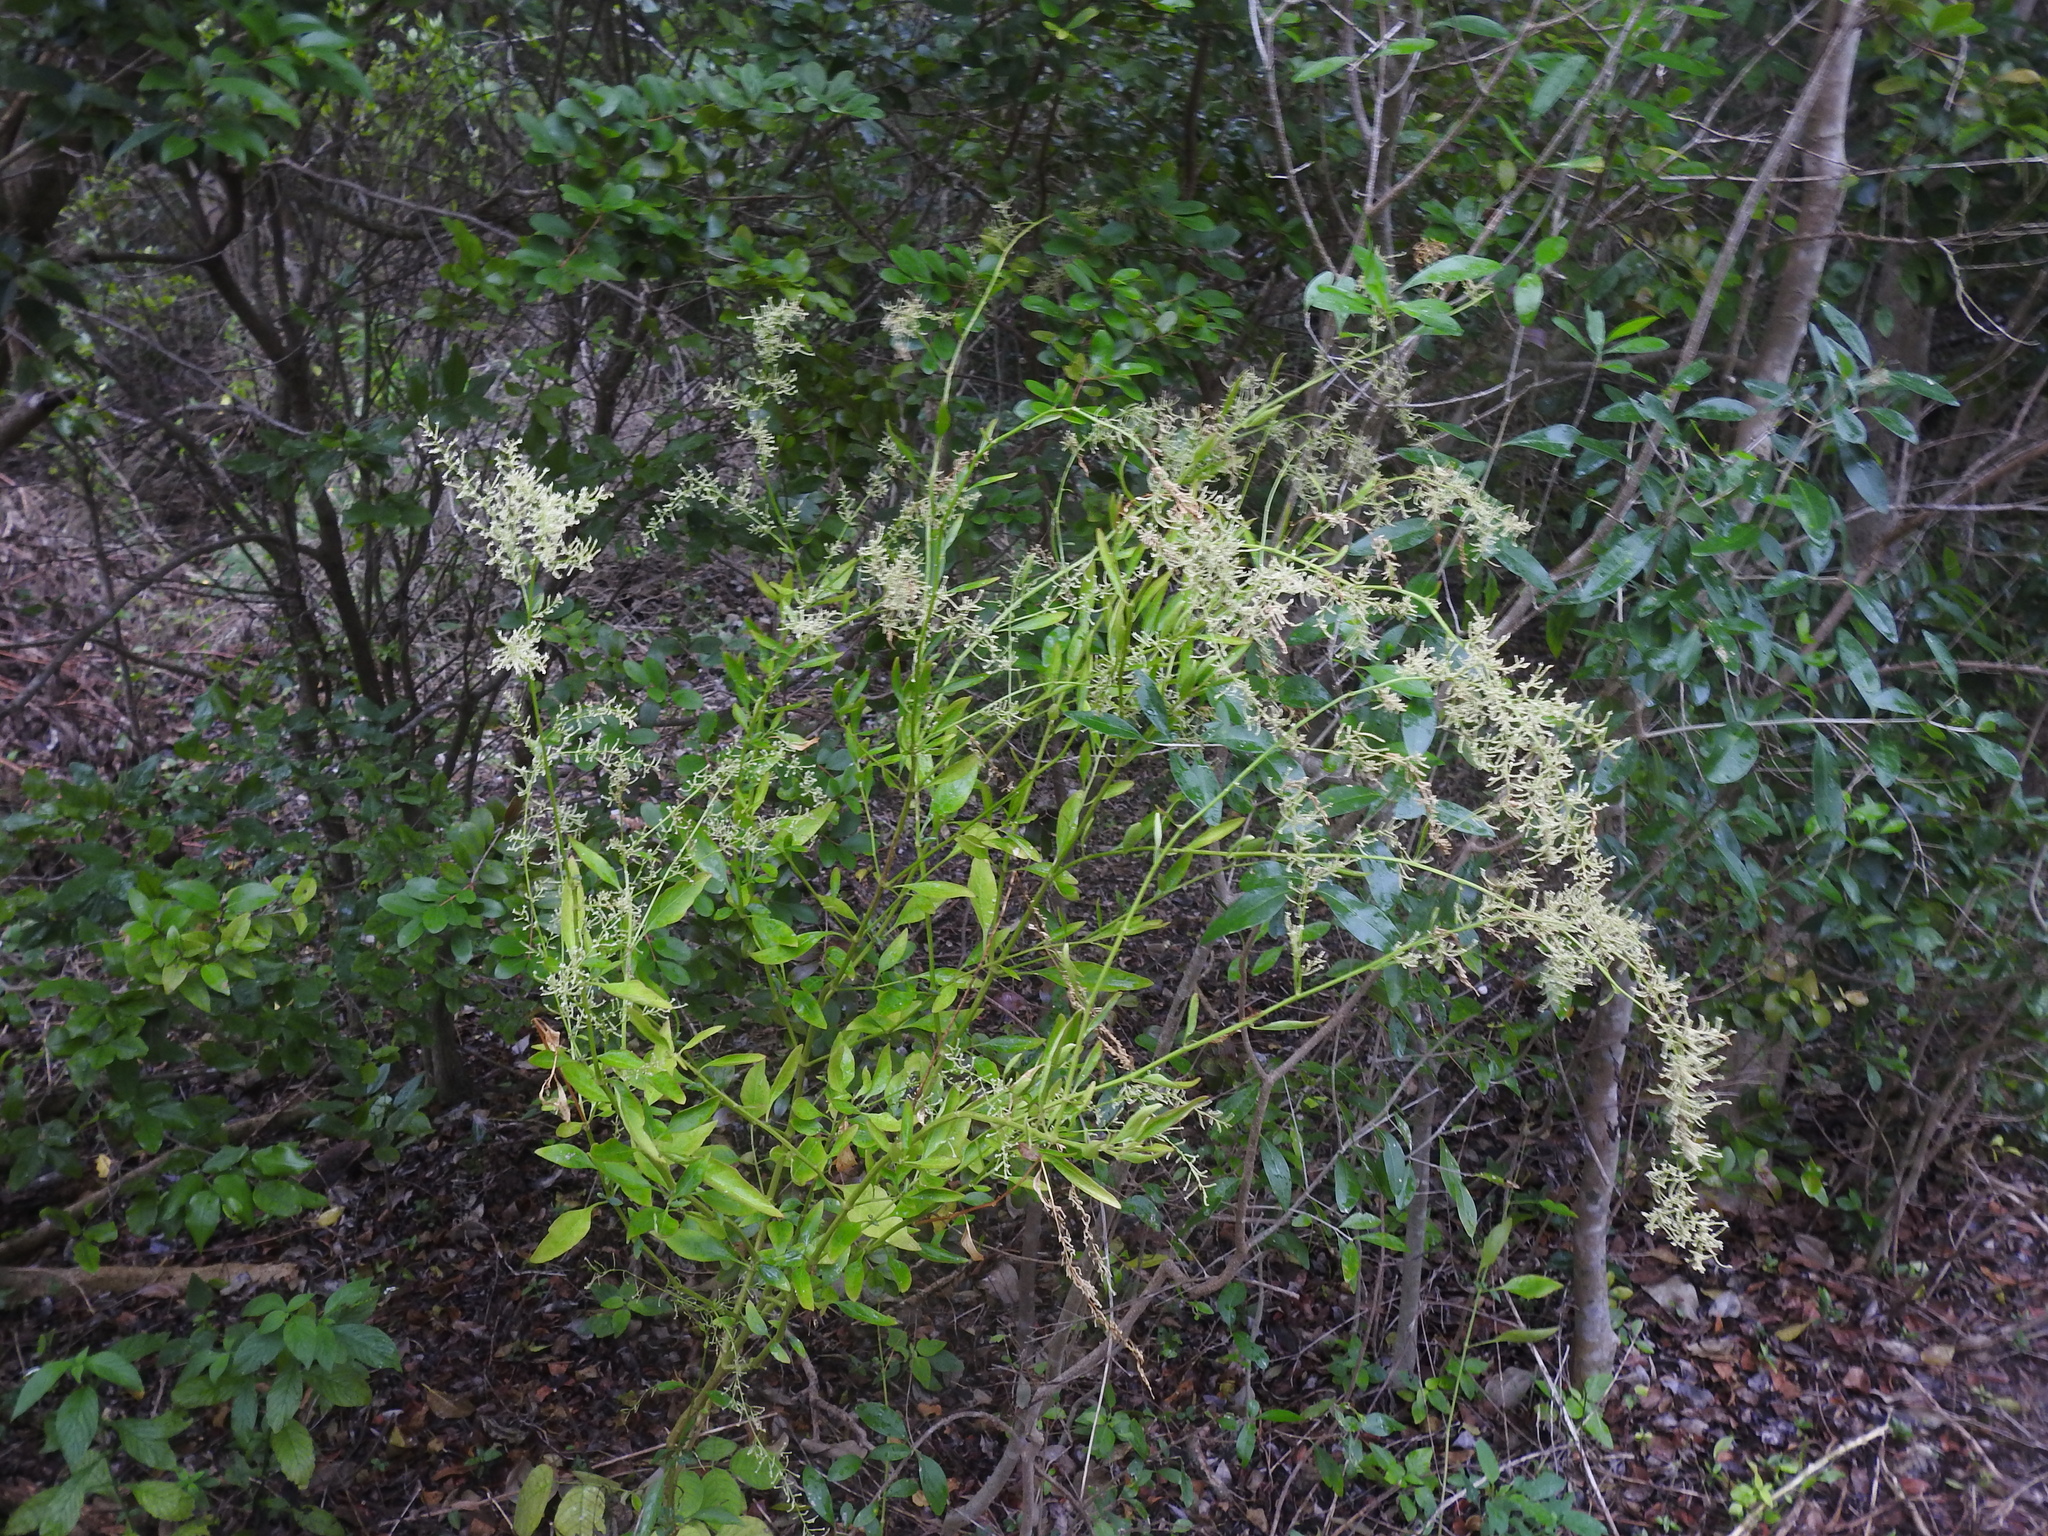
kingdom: Plantae
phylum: Tracheophyta
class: Magnoliopsida
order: Caryophyllales
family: Amaranthaceae
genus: Iresine
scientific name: Iresine diffusa
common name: Juba's-bush
